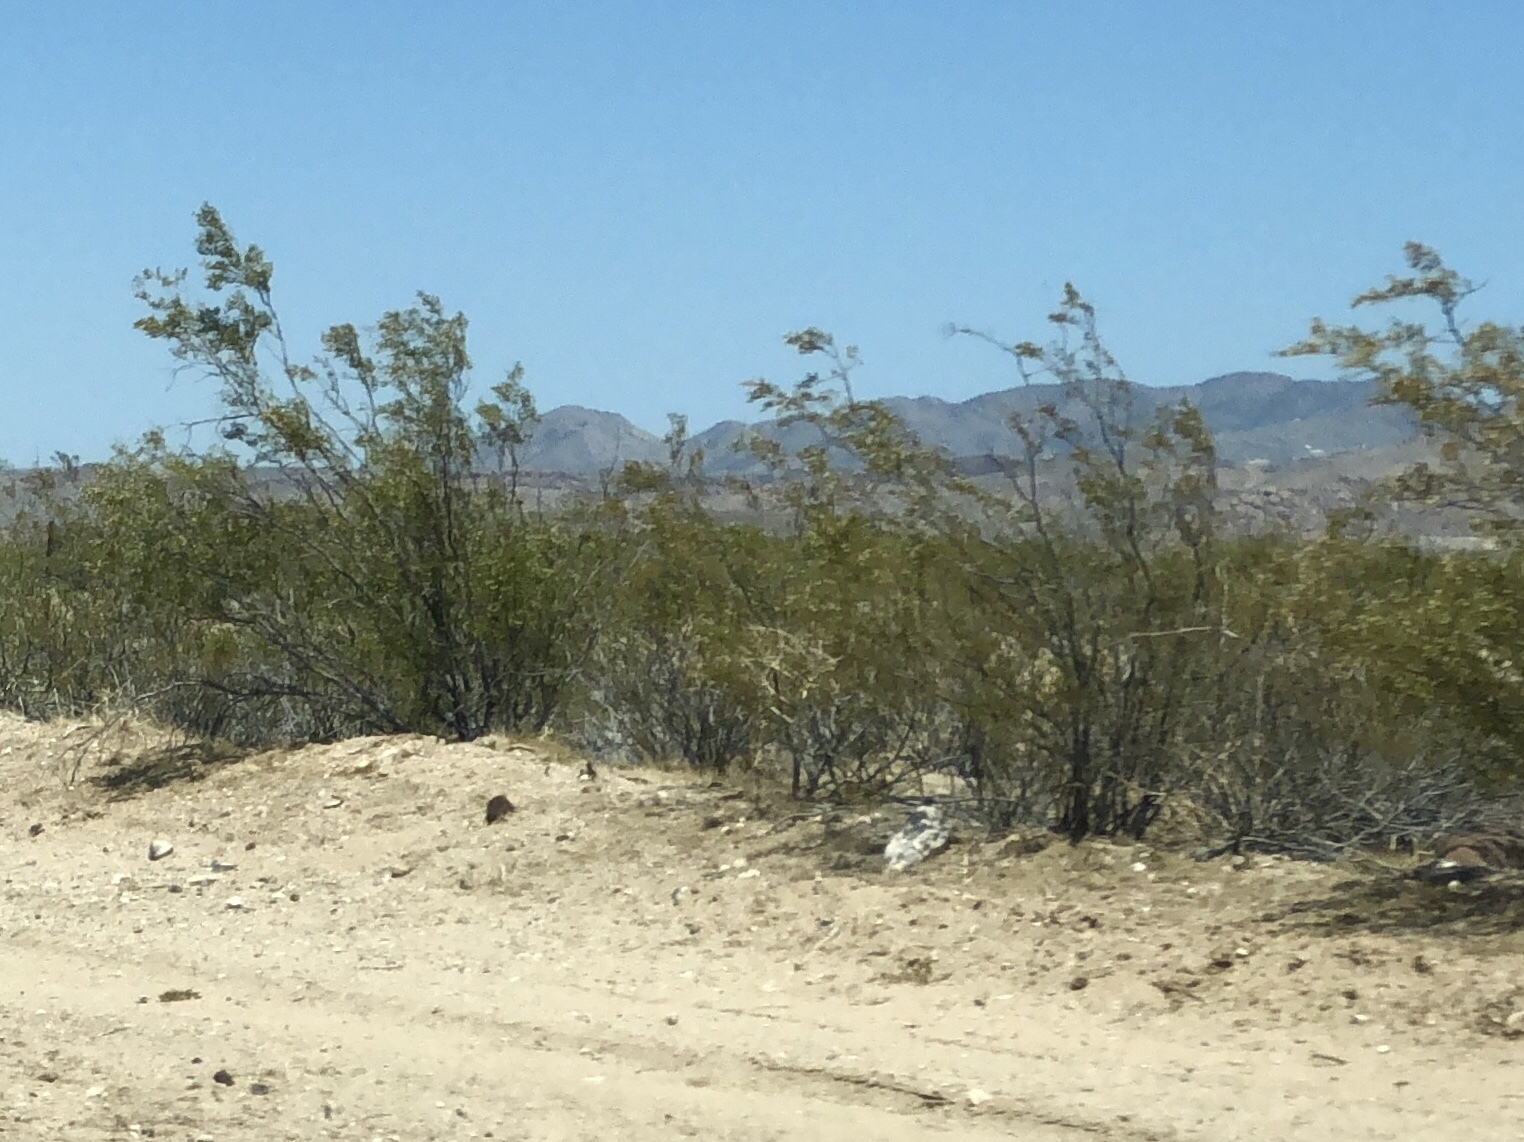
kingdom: Plantae
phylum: Tracheophyta
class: Magnoliopsida
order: Zygophyllales
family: Zygophyllaceae
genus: Larrea
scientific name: Larrea tridentata
